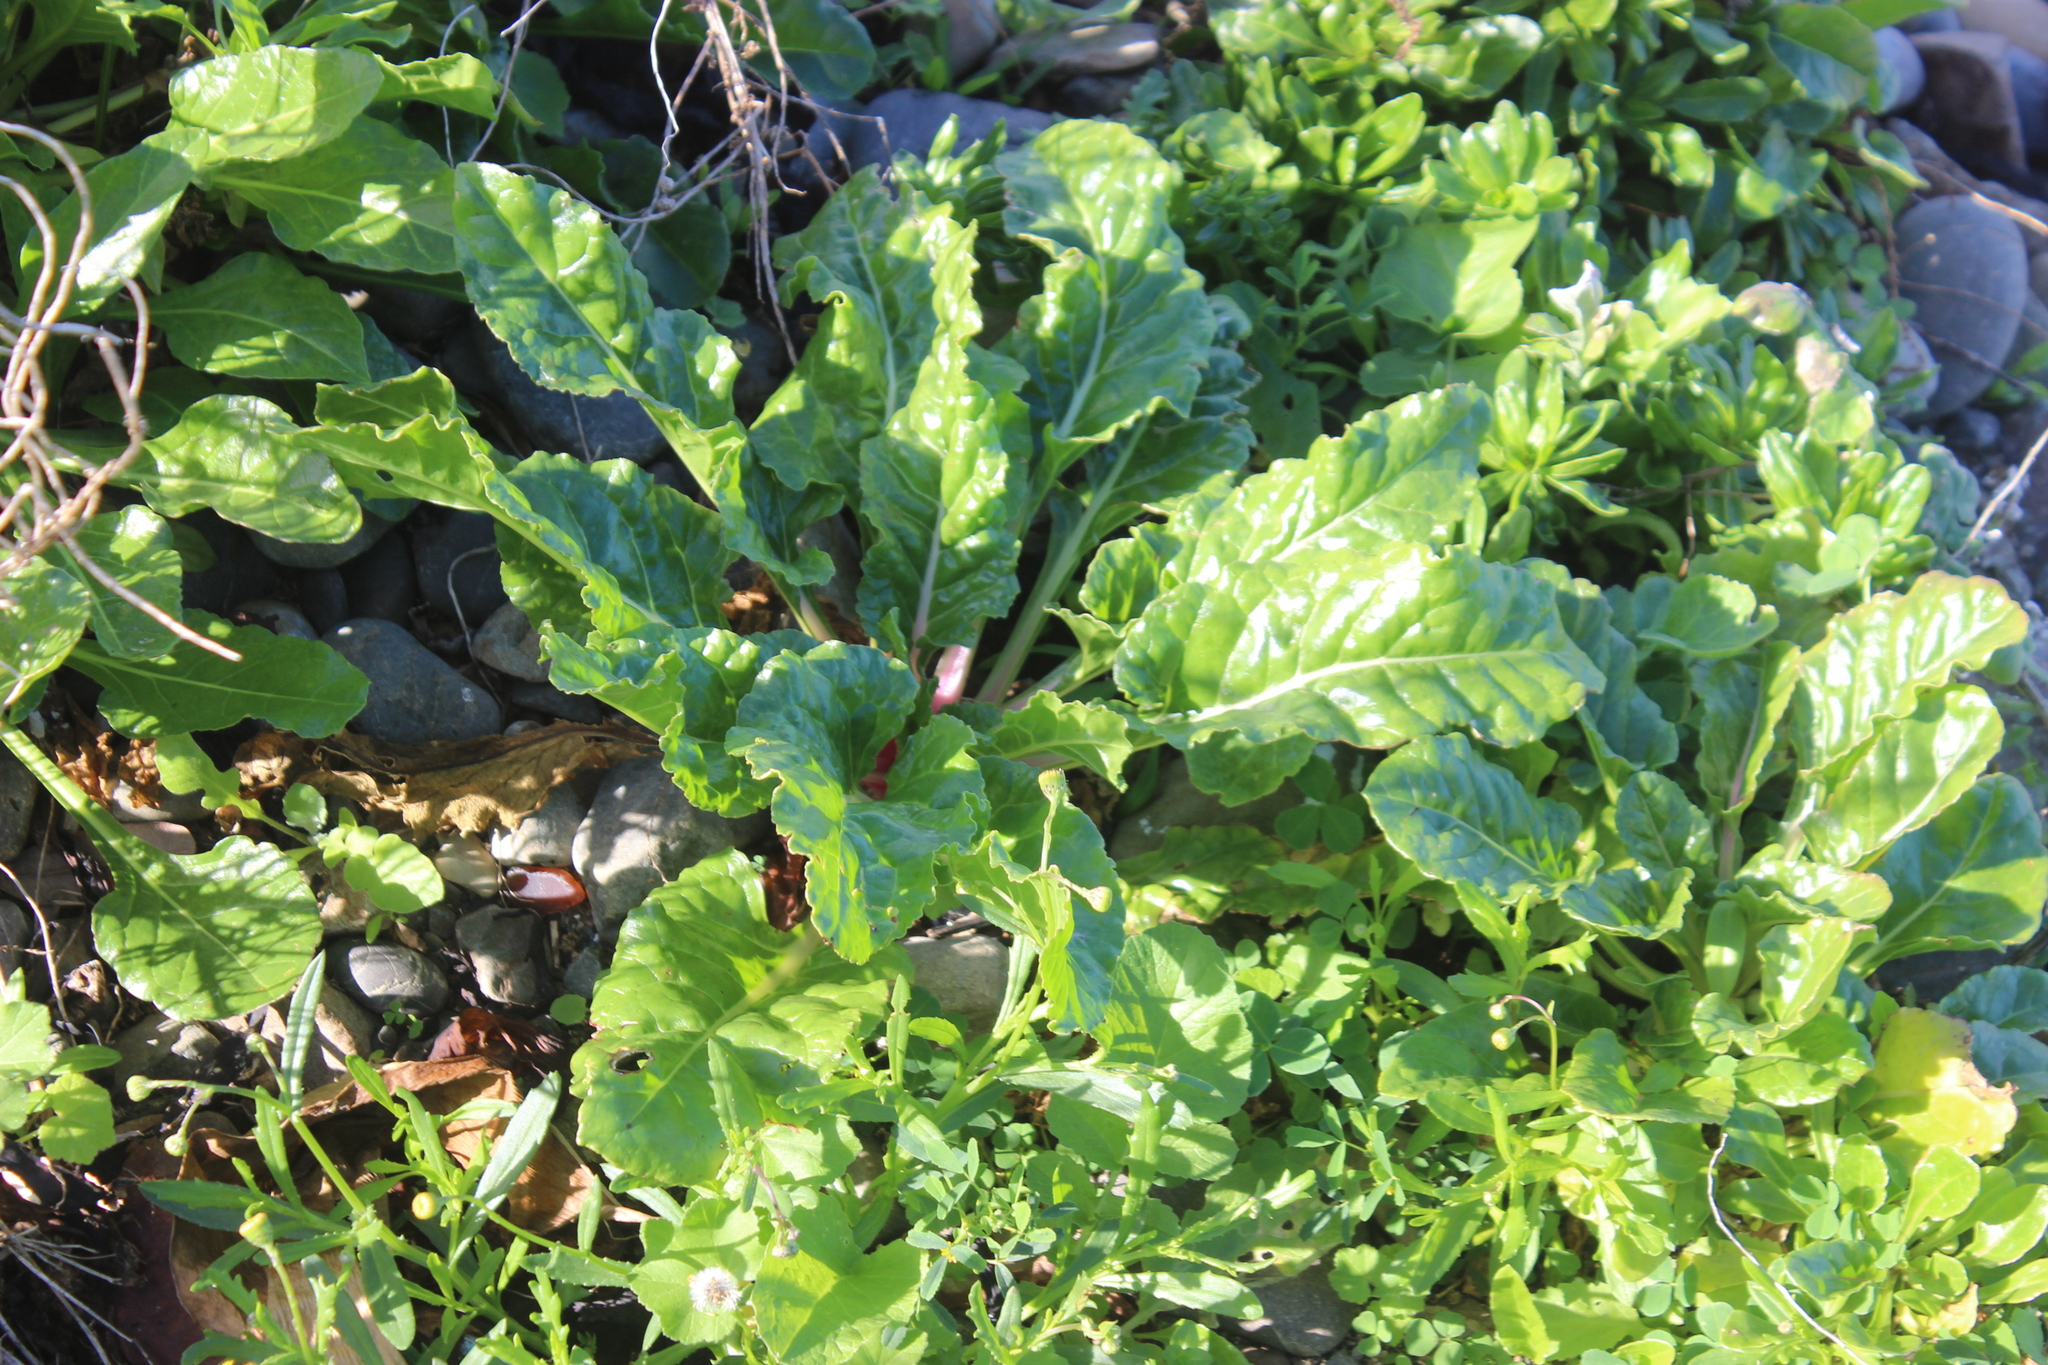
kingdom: Plantae
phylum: Tracheophyta
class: Magnoliopsida
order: Caryophyllales
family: Amaranthaceae
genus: Beta
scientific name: Beta vulgaris
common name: Beet
